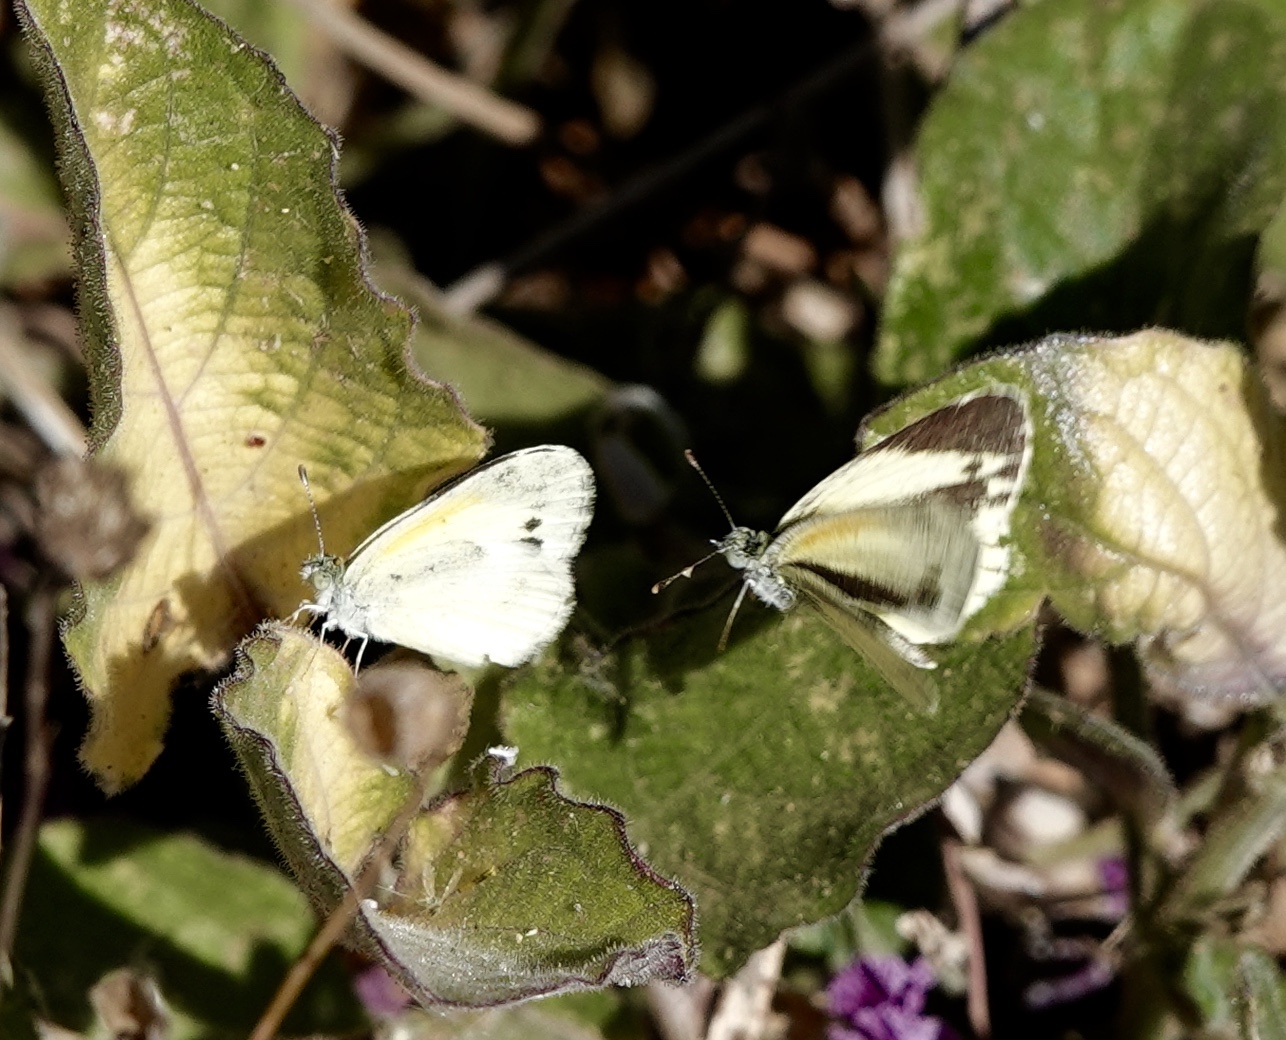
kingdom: Animalia
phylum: Arthropoda
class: Insecta
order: Lepidoptera
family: Pieridae
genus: Nathalis
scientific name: Nathalis iole
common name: Dainty sulphur
